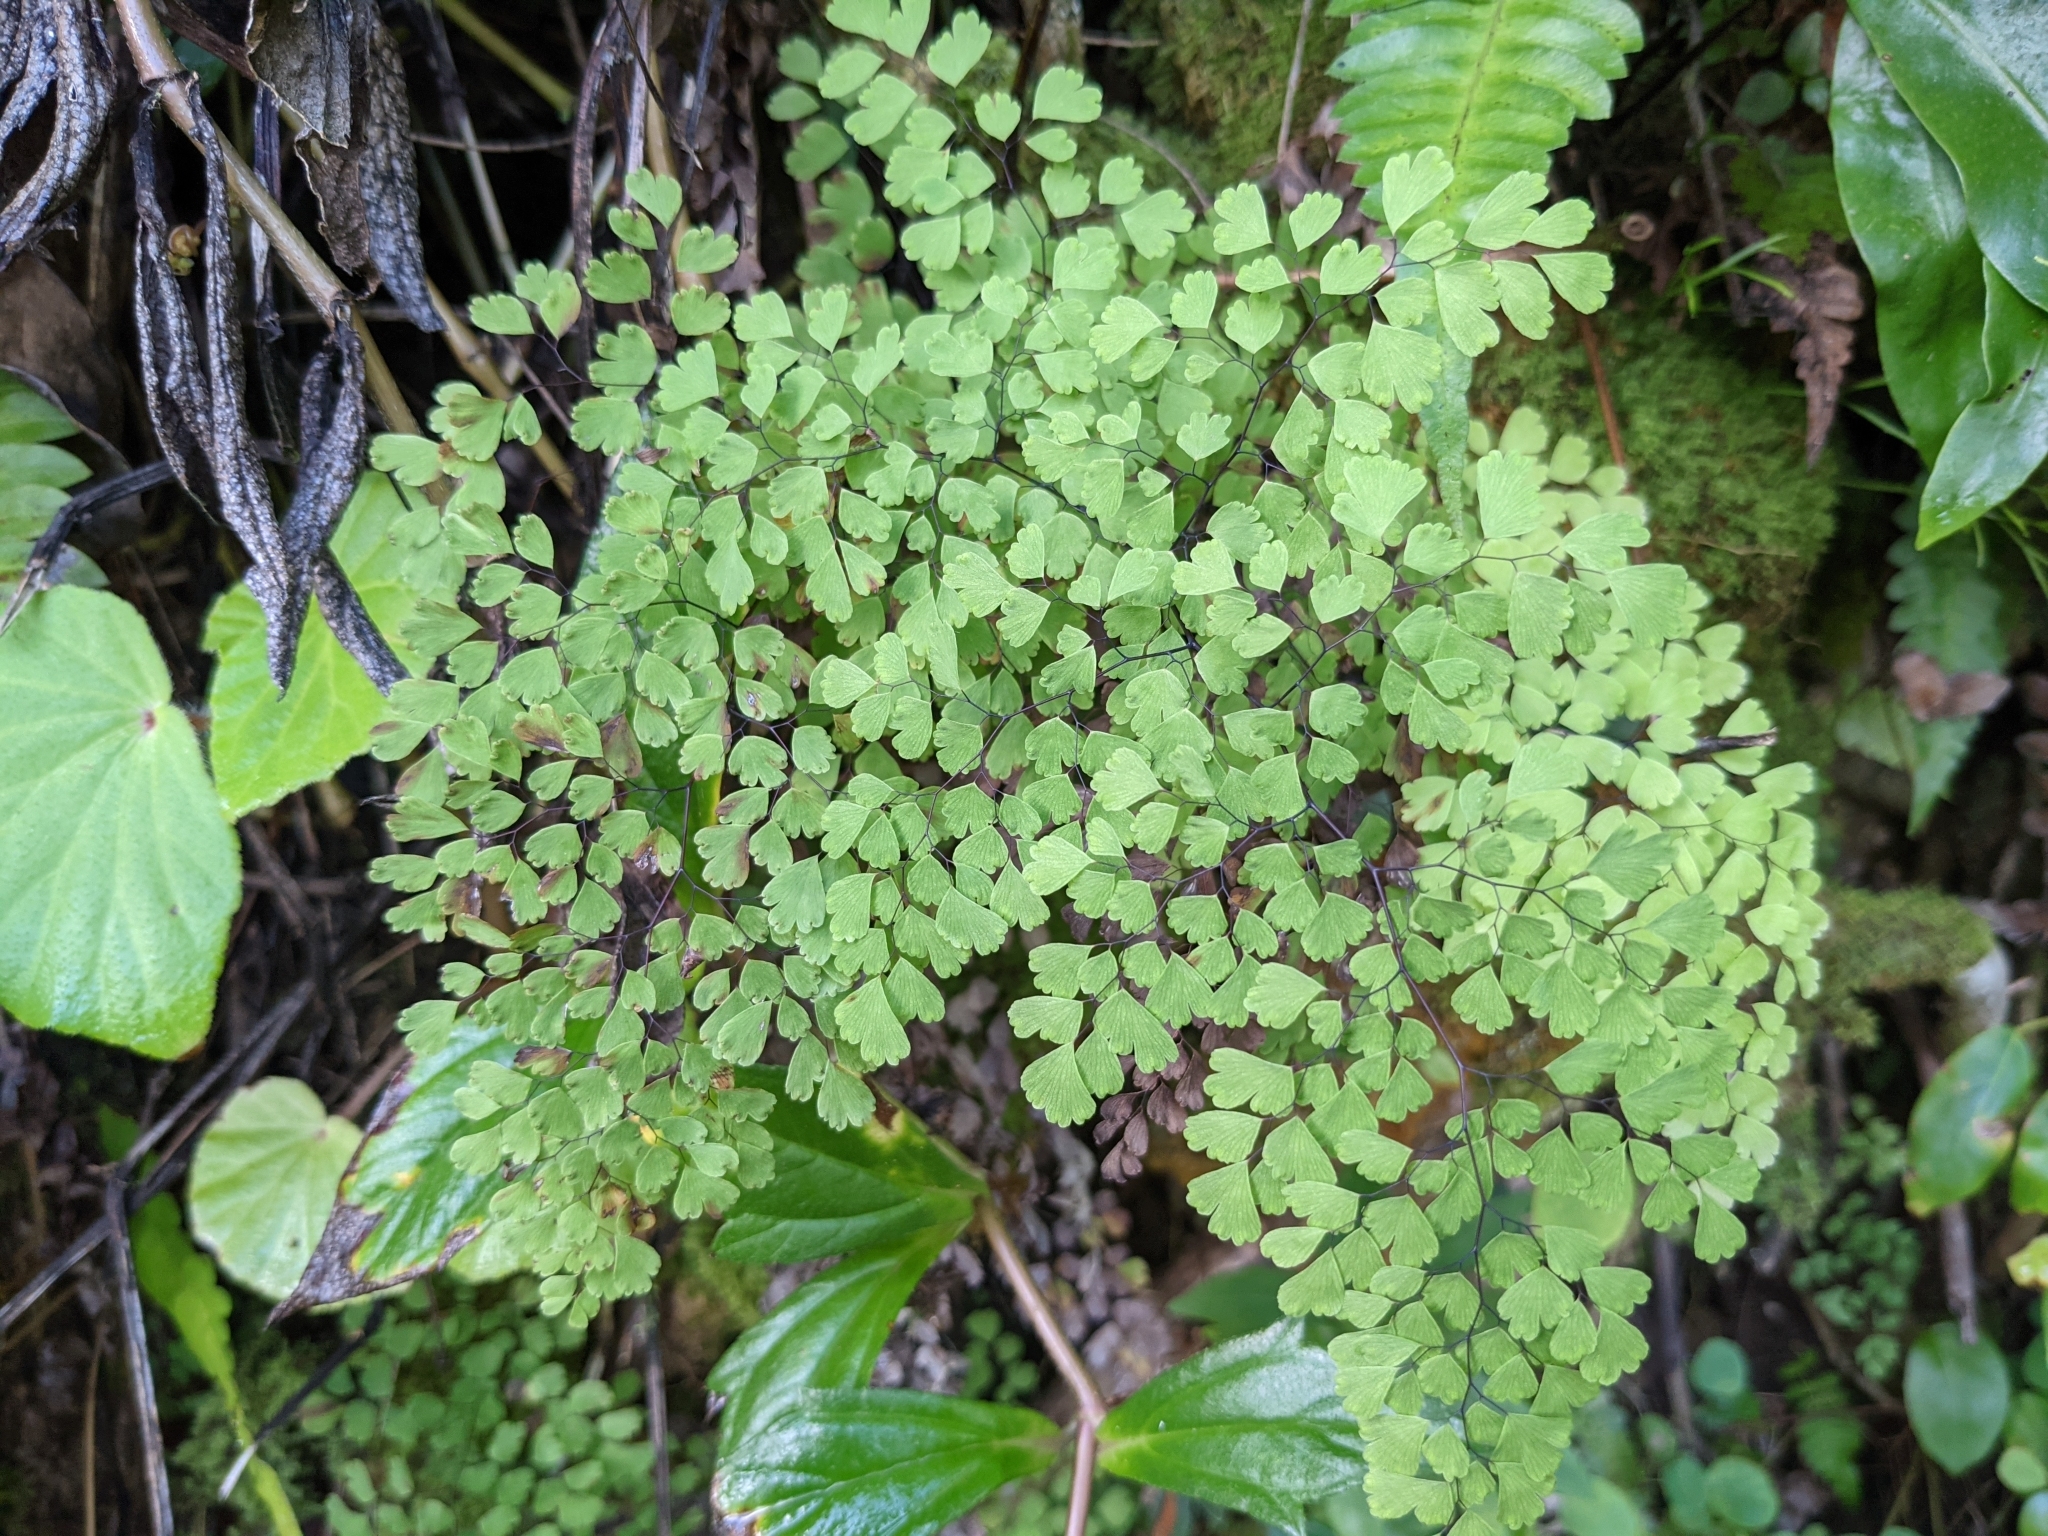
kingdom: Plantae
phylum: Tracheophyta
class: Polypodiopsida
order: Polypodiales
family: Pteridaceae
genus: Adiantum
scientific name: Adiantum raddianum
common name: Delta maidenhair fern
